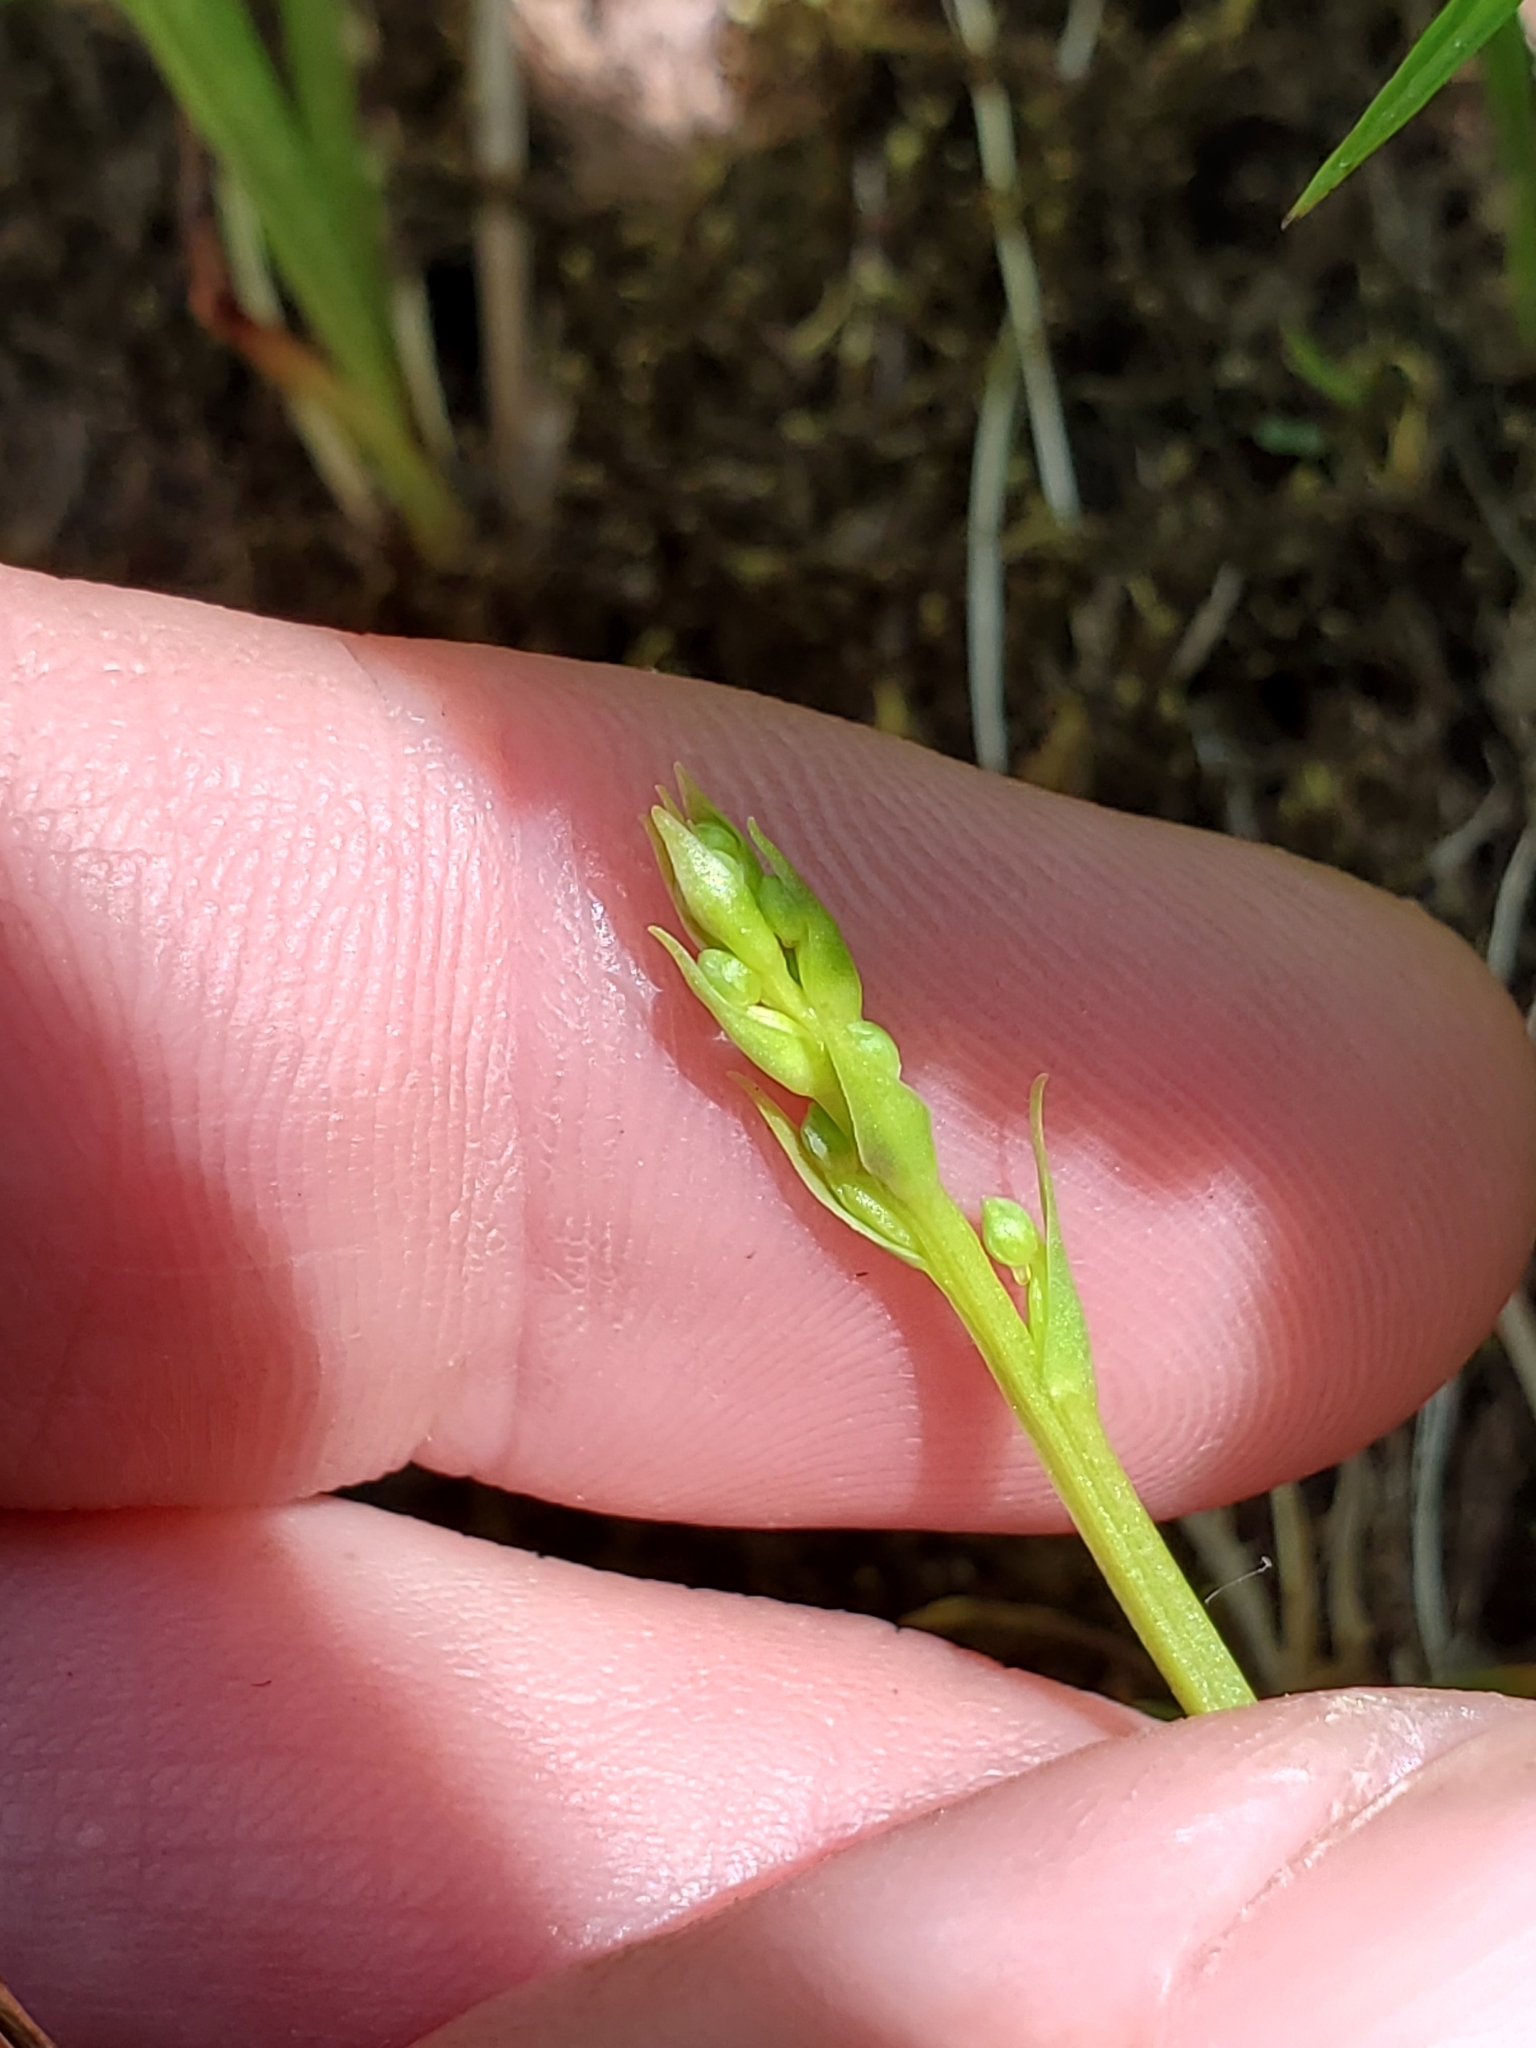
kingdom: Plantae
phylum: Tracheophyta
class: Liliopsida
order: Asparagales
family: Orchidaceae
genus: Platanthera
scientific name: Platanthera chorisiana
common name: Chamisso's orchid
